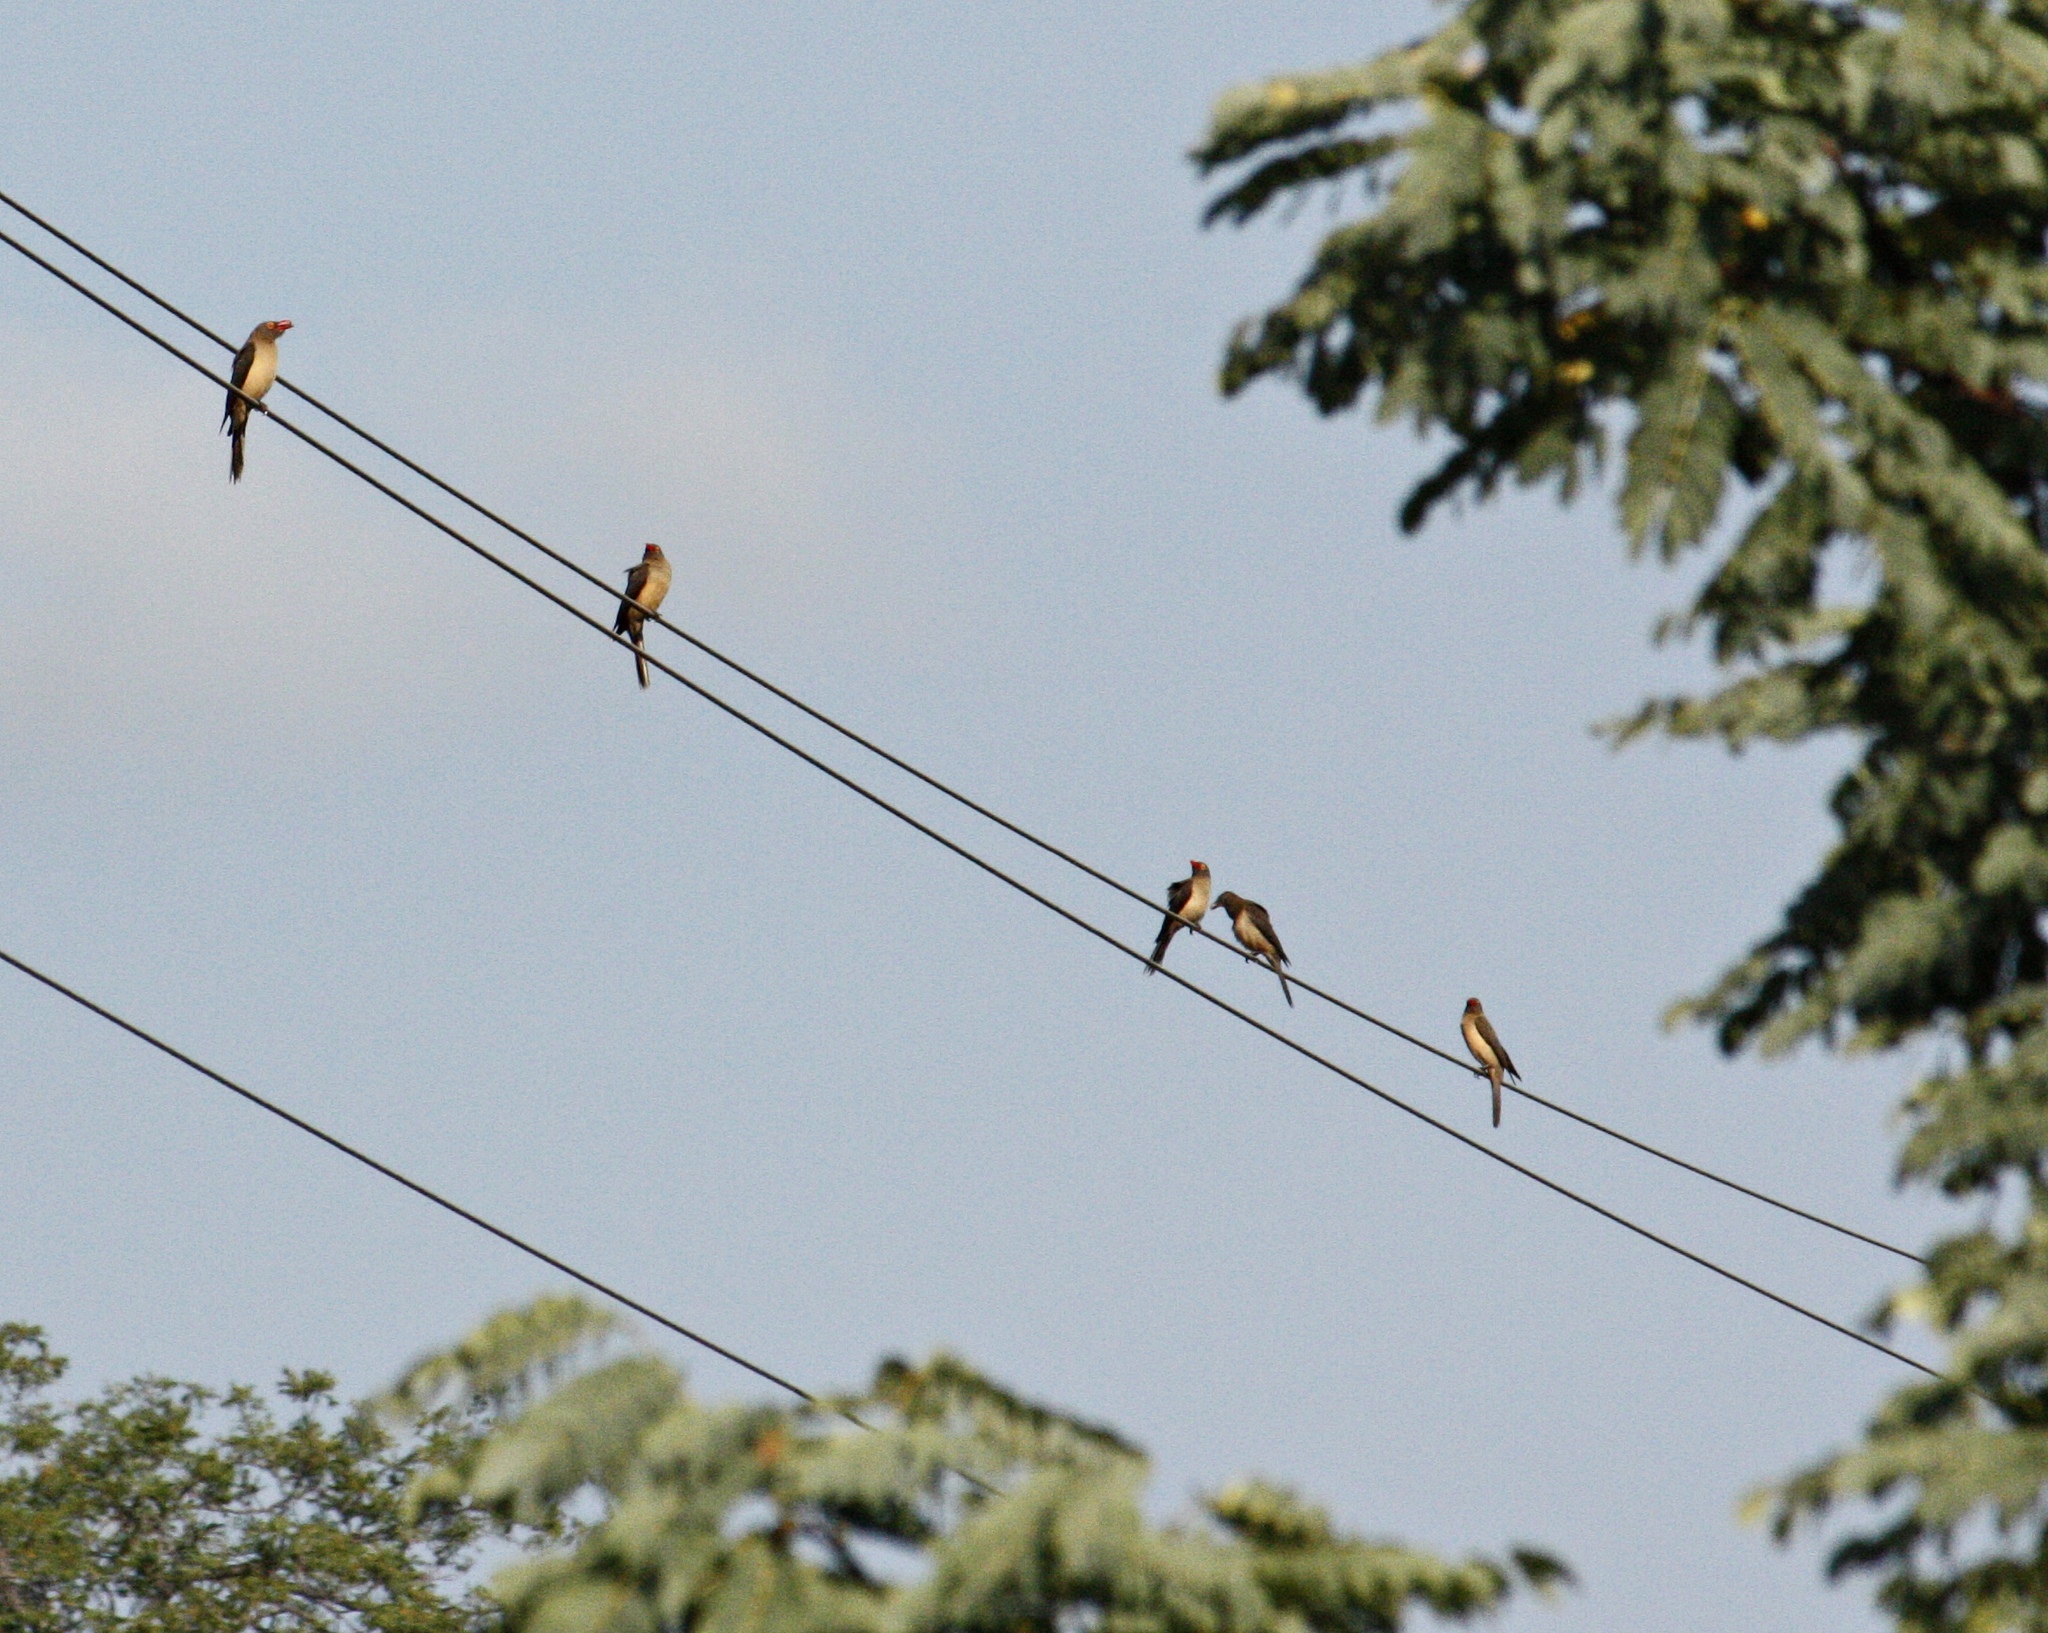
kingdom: Animalia
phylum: Chordata
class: Aves
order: Passeriformes
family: Buphagidae
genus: Buphagus
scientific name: Buphagus erythrorhynchus
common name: Red-billed oxpecker
